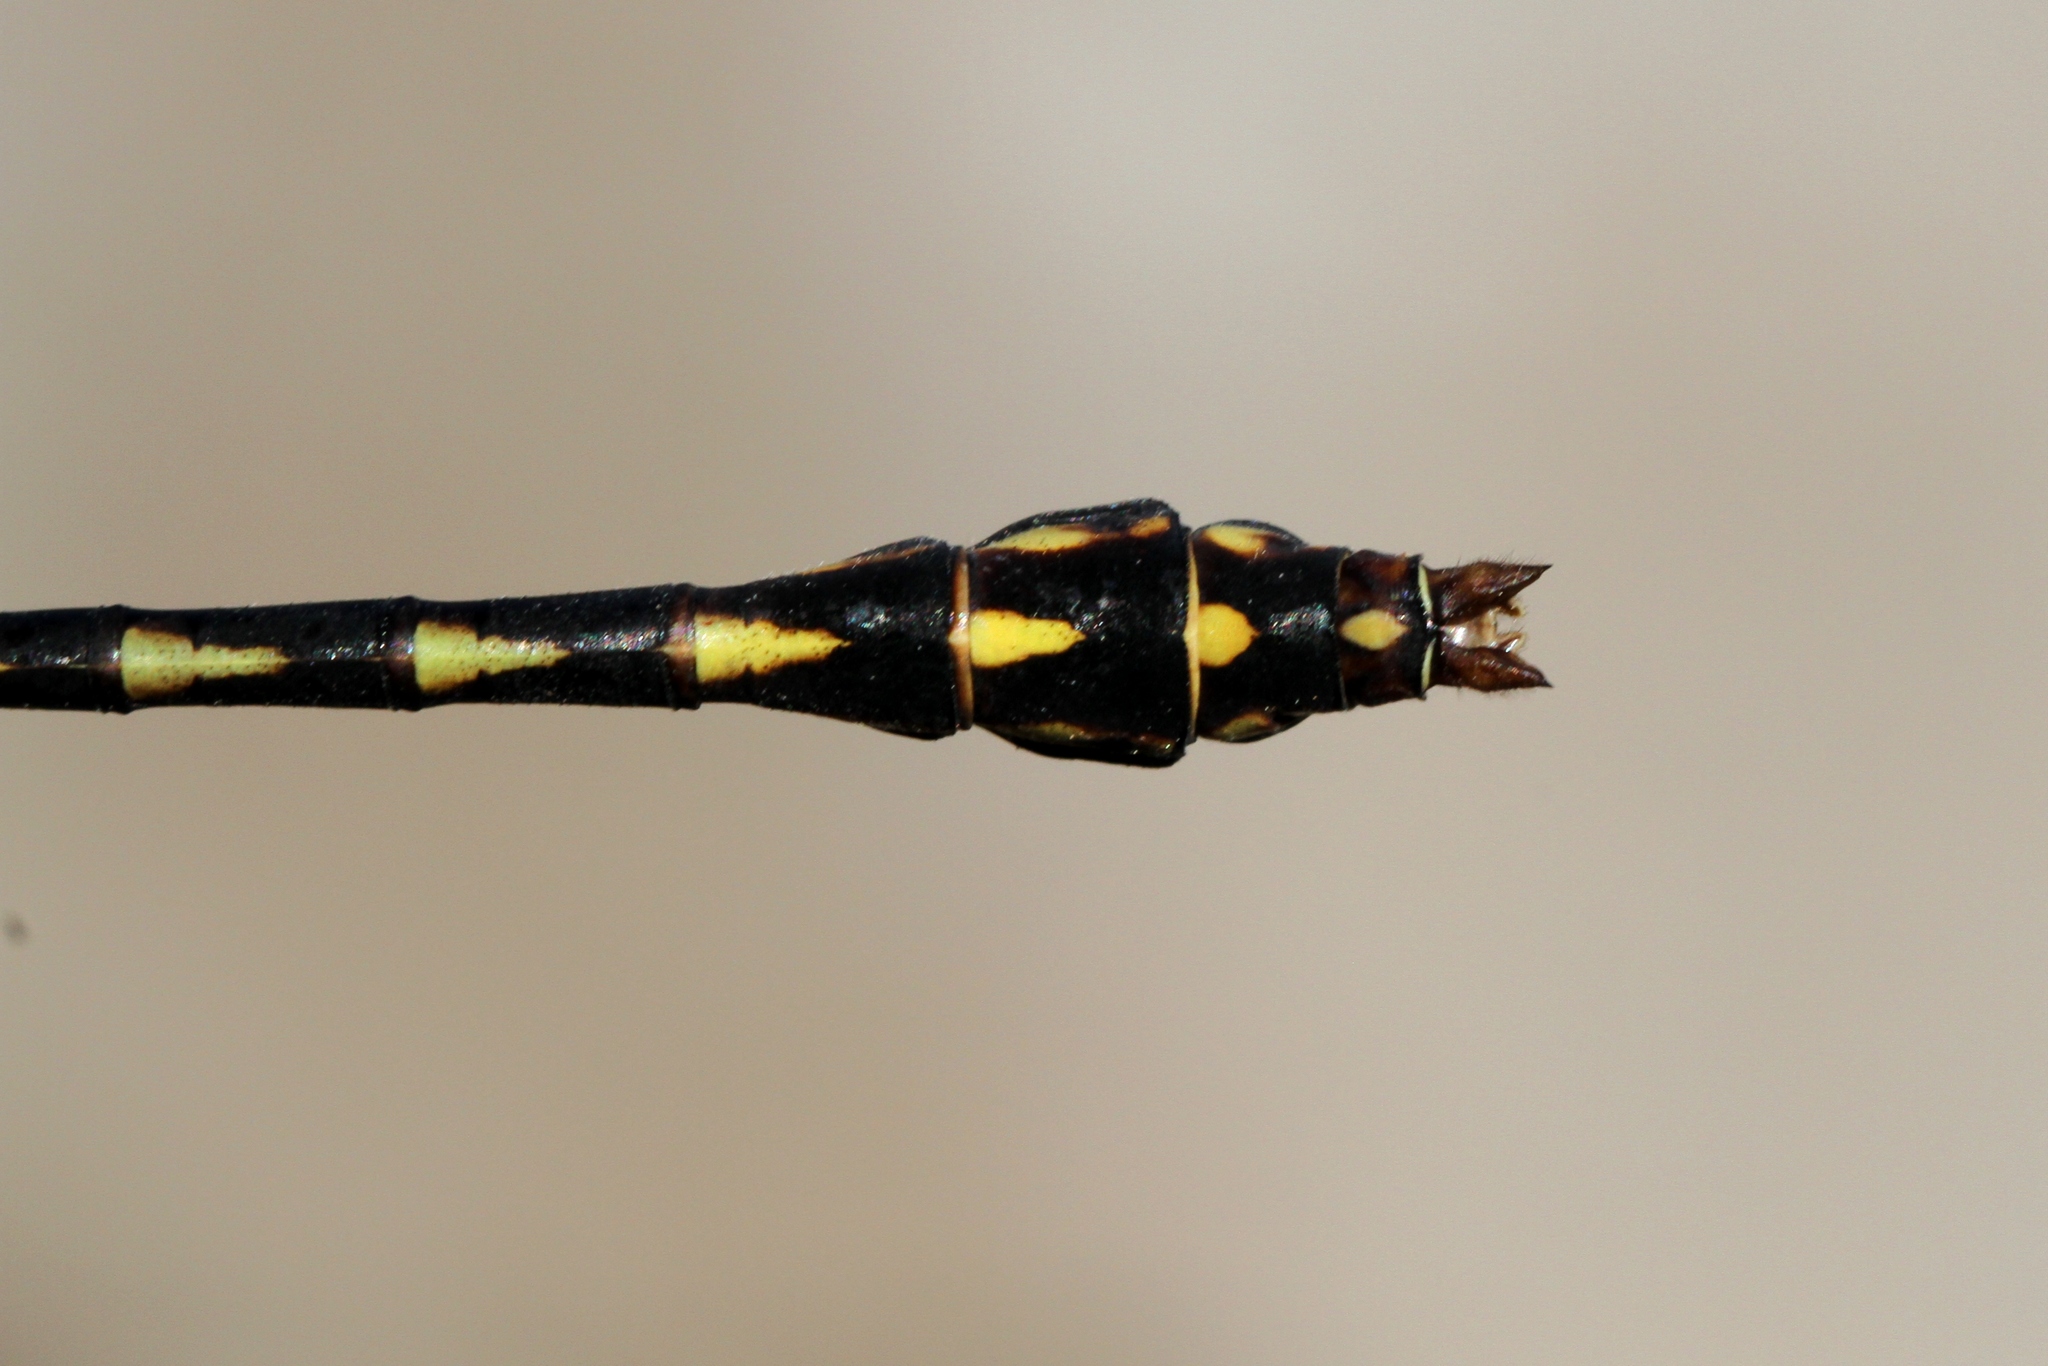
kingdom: Animalia
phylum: Arthropoda
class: Insecta
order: Odonata
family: Gomphidae
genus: Ophiogomphus
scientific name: Ophiogomphus aspersus
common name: Brook snaketail
